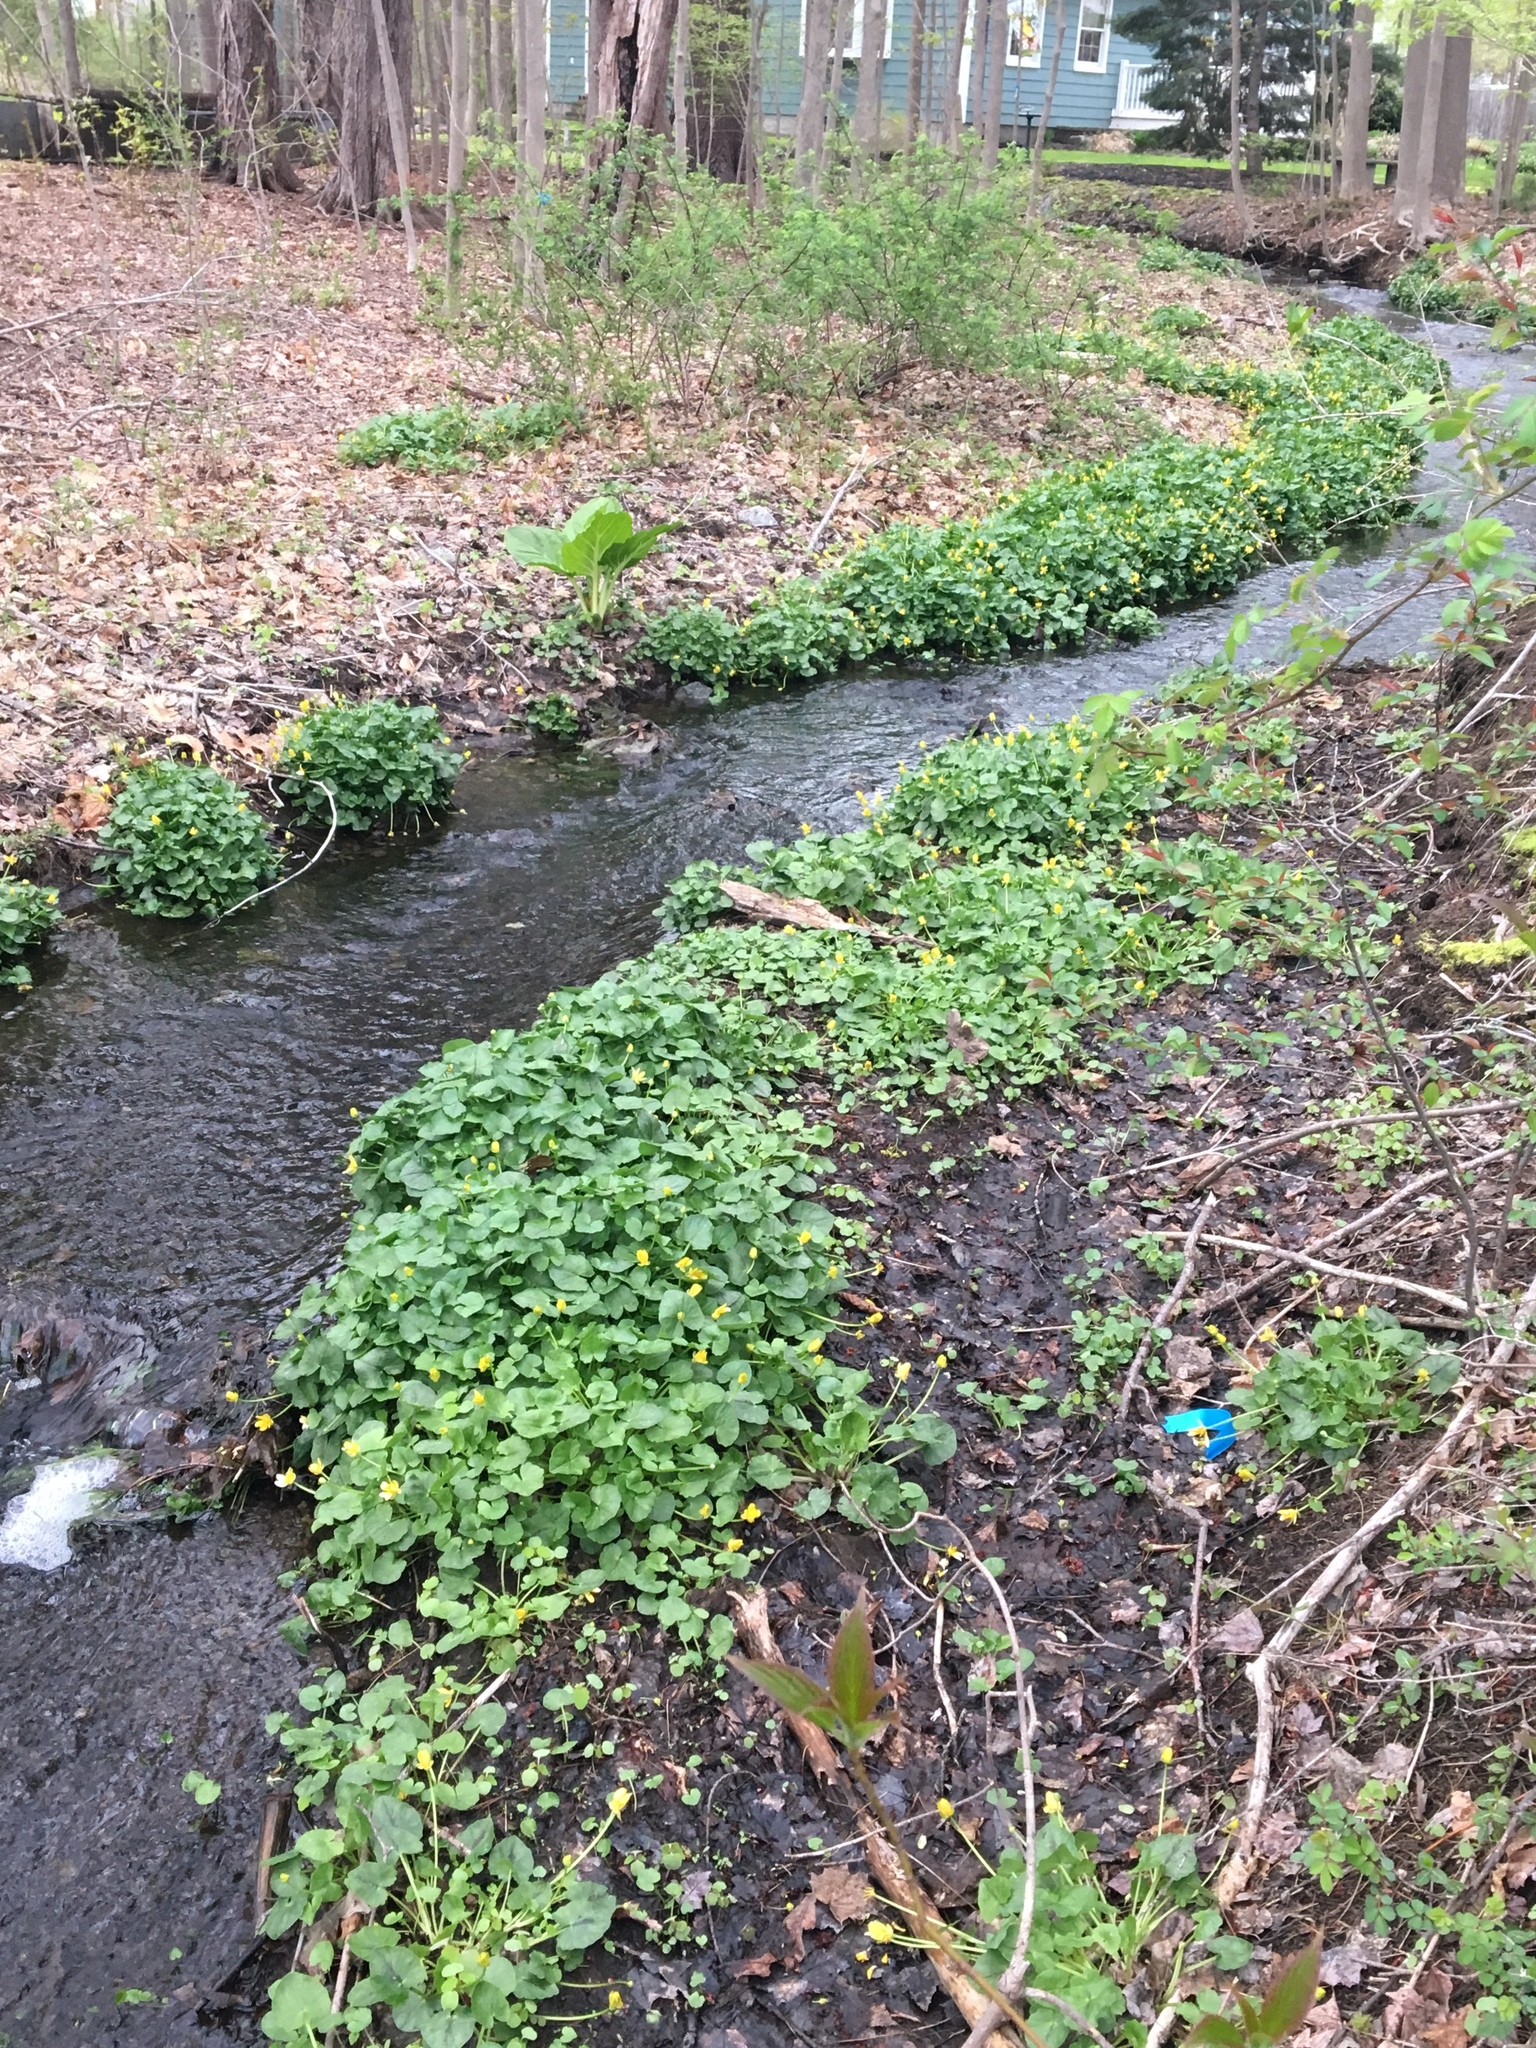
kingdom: Plantae
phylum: Tracheophyta
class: Magnoliopsida
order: Ranunculales
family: Ranunculaceae
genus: Ficaria
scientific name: Ficaria verna
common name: Lesser celandine
